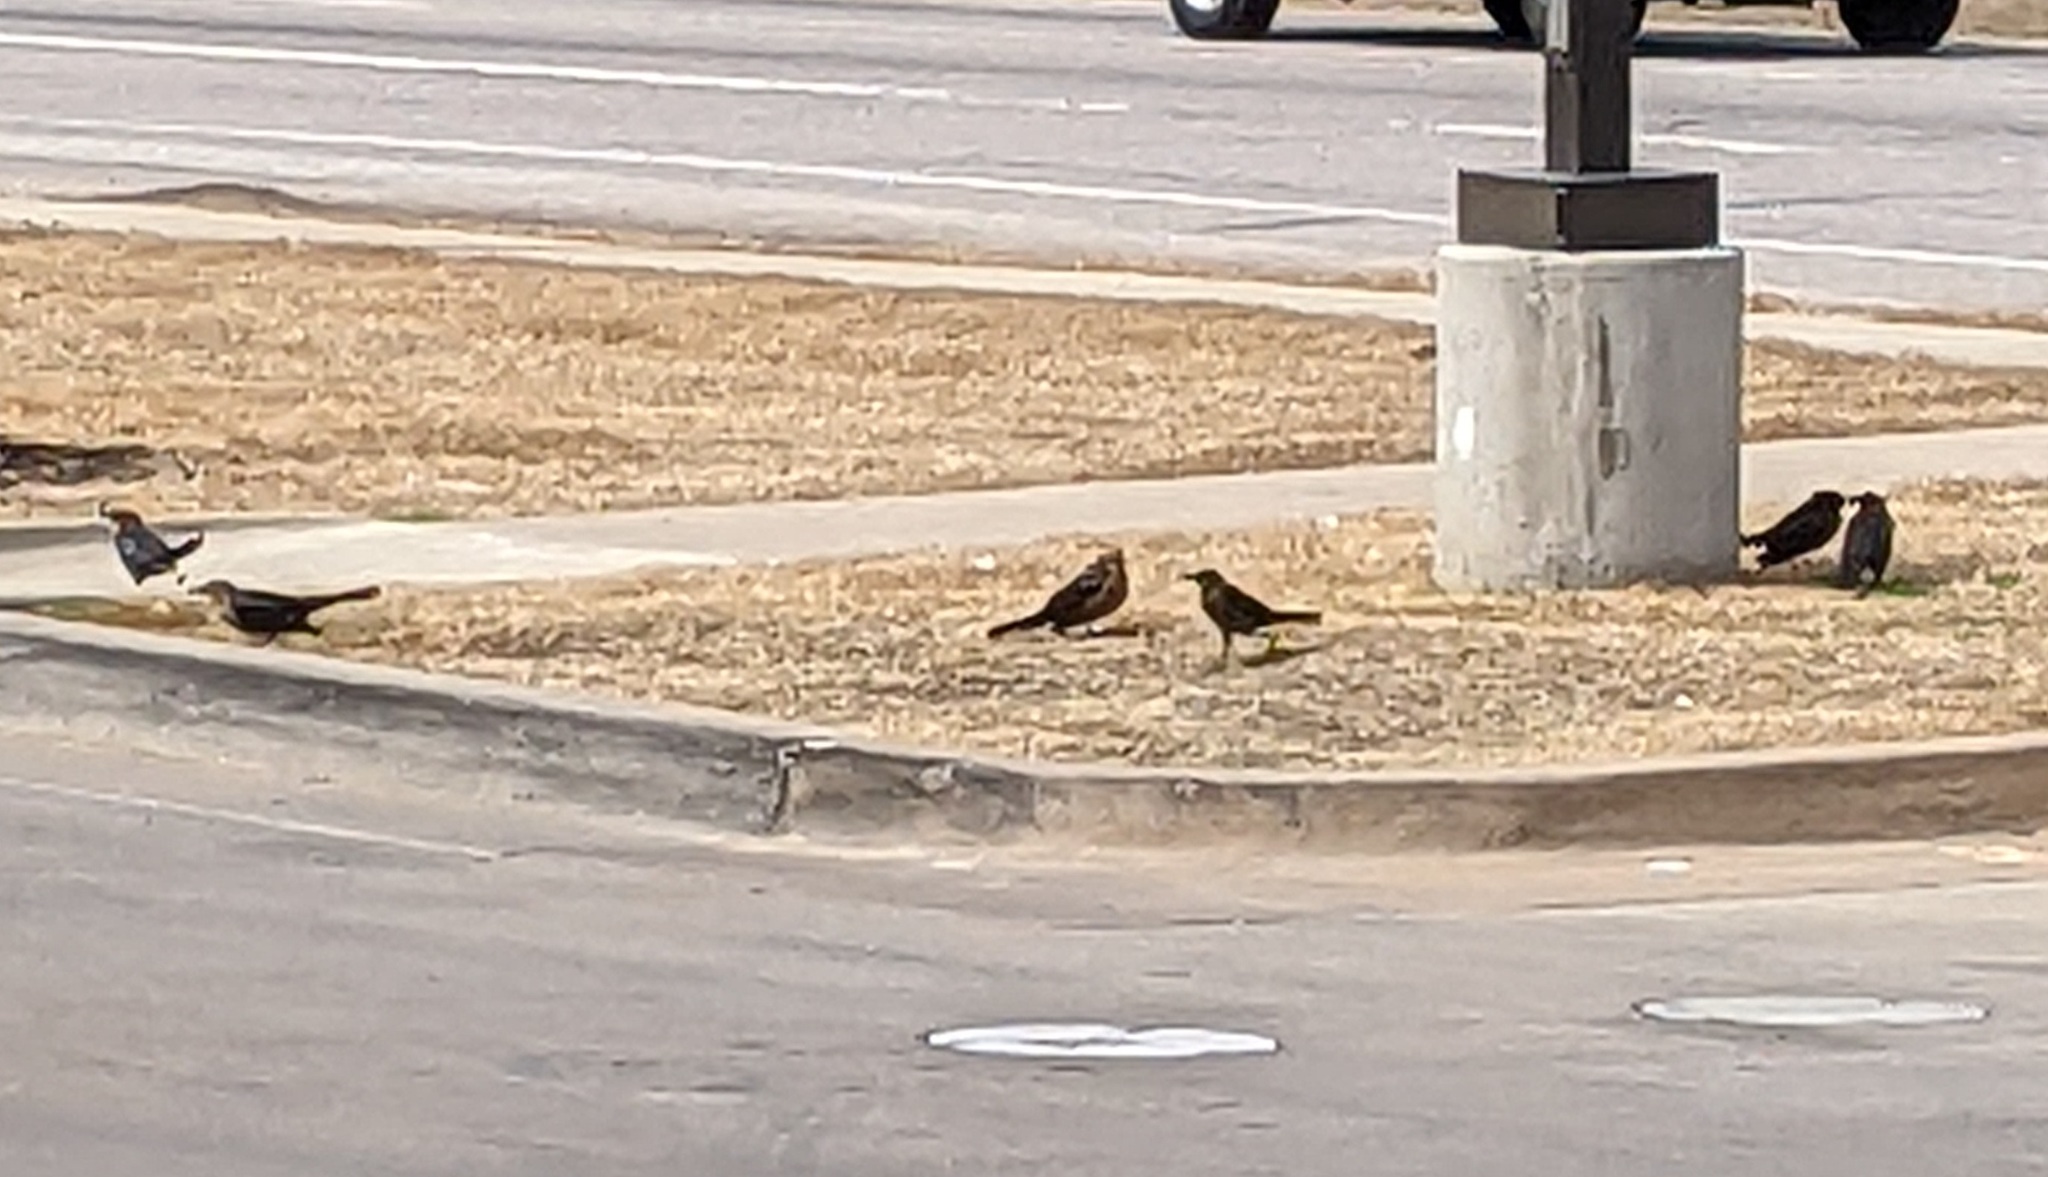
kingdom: Animalia
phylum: Chordata
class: Aves
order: Passeriformes
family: Icteridae
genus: Quiscalus
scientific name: Quiscalus mexicanus
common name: Great-tailed grackle
